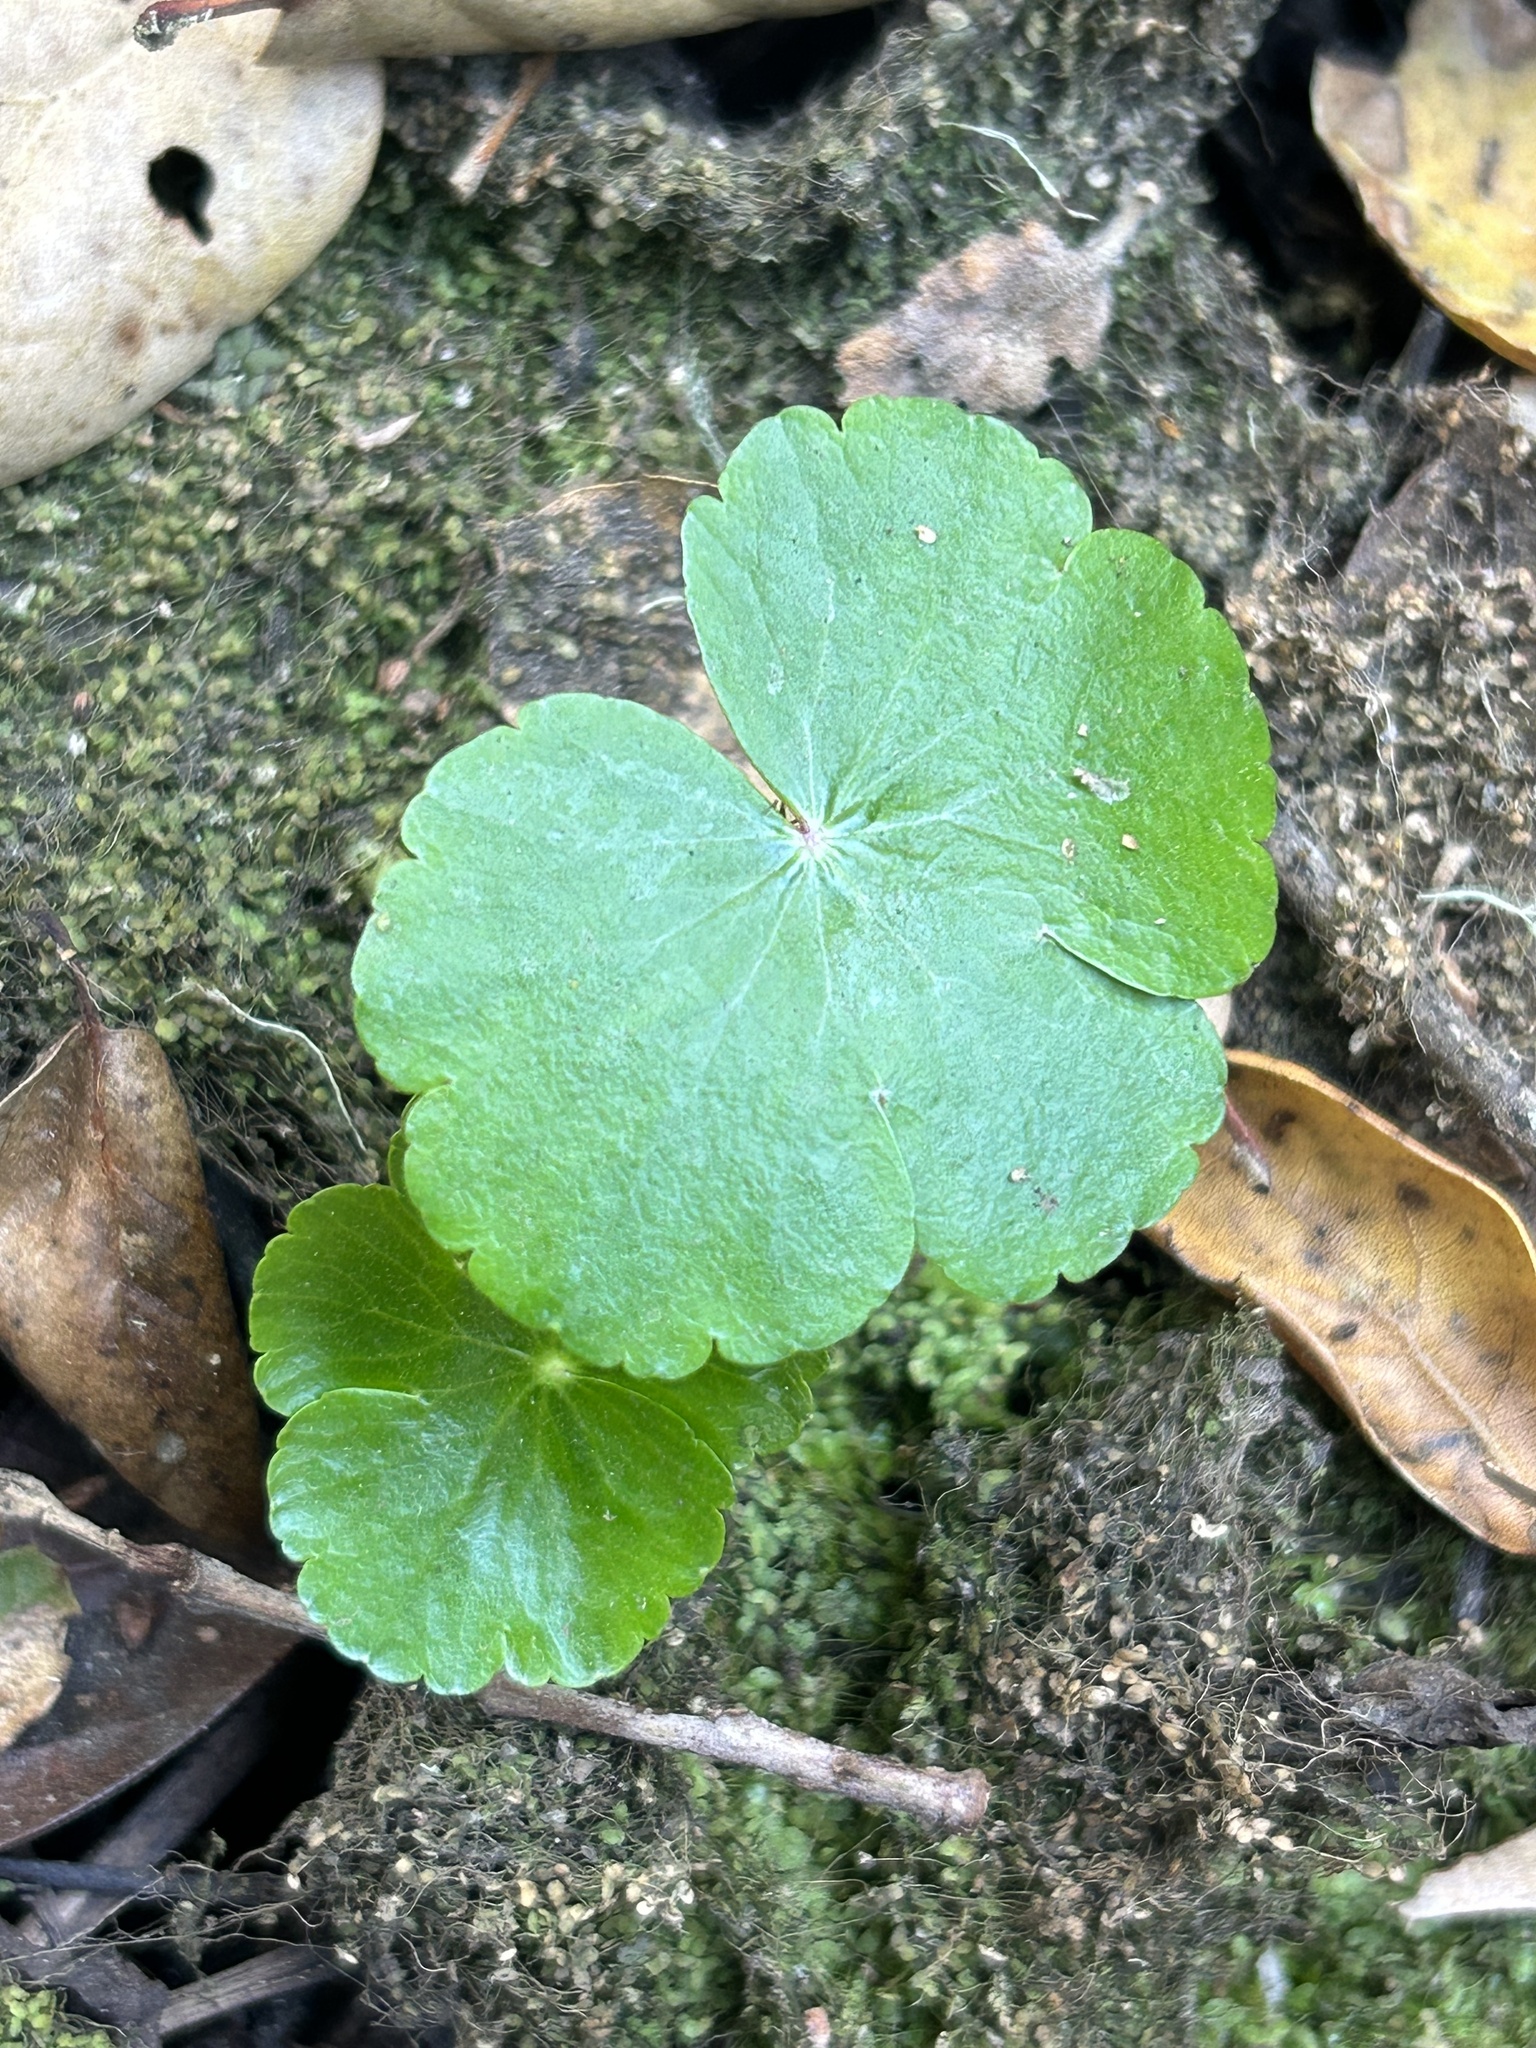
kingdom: Plantae
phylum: Tracheophyta
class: Magnoliopsida
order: Apiales
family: Araliaceae
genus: Hydrocotyle
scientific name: Hydrocotyle ranunculoides
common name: Floating pennywort
